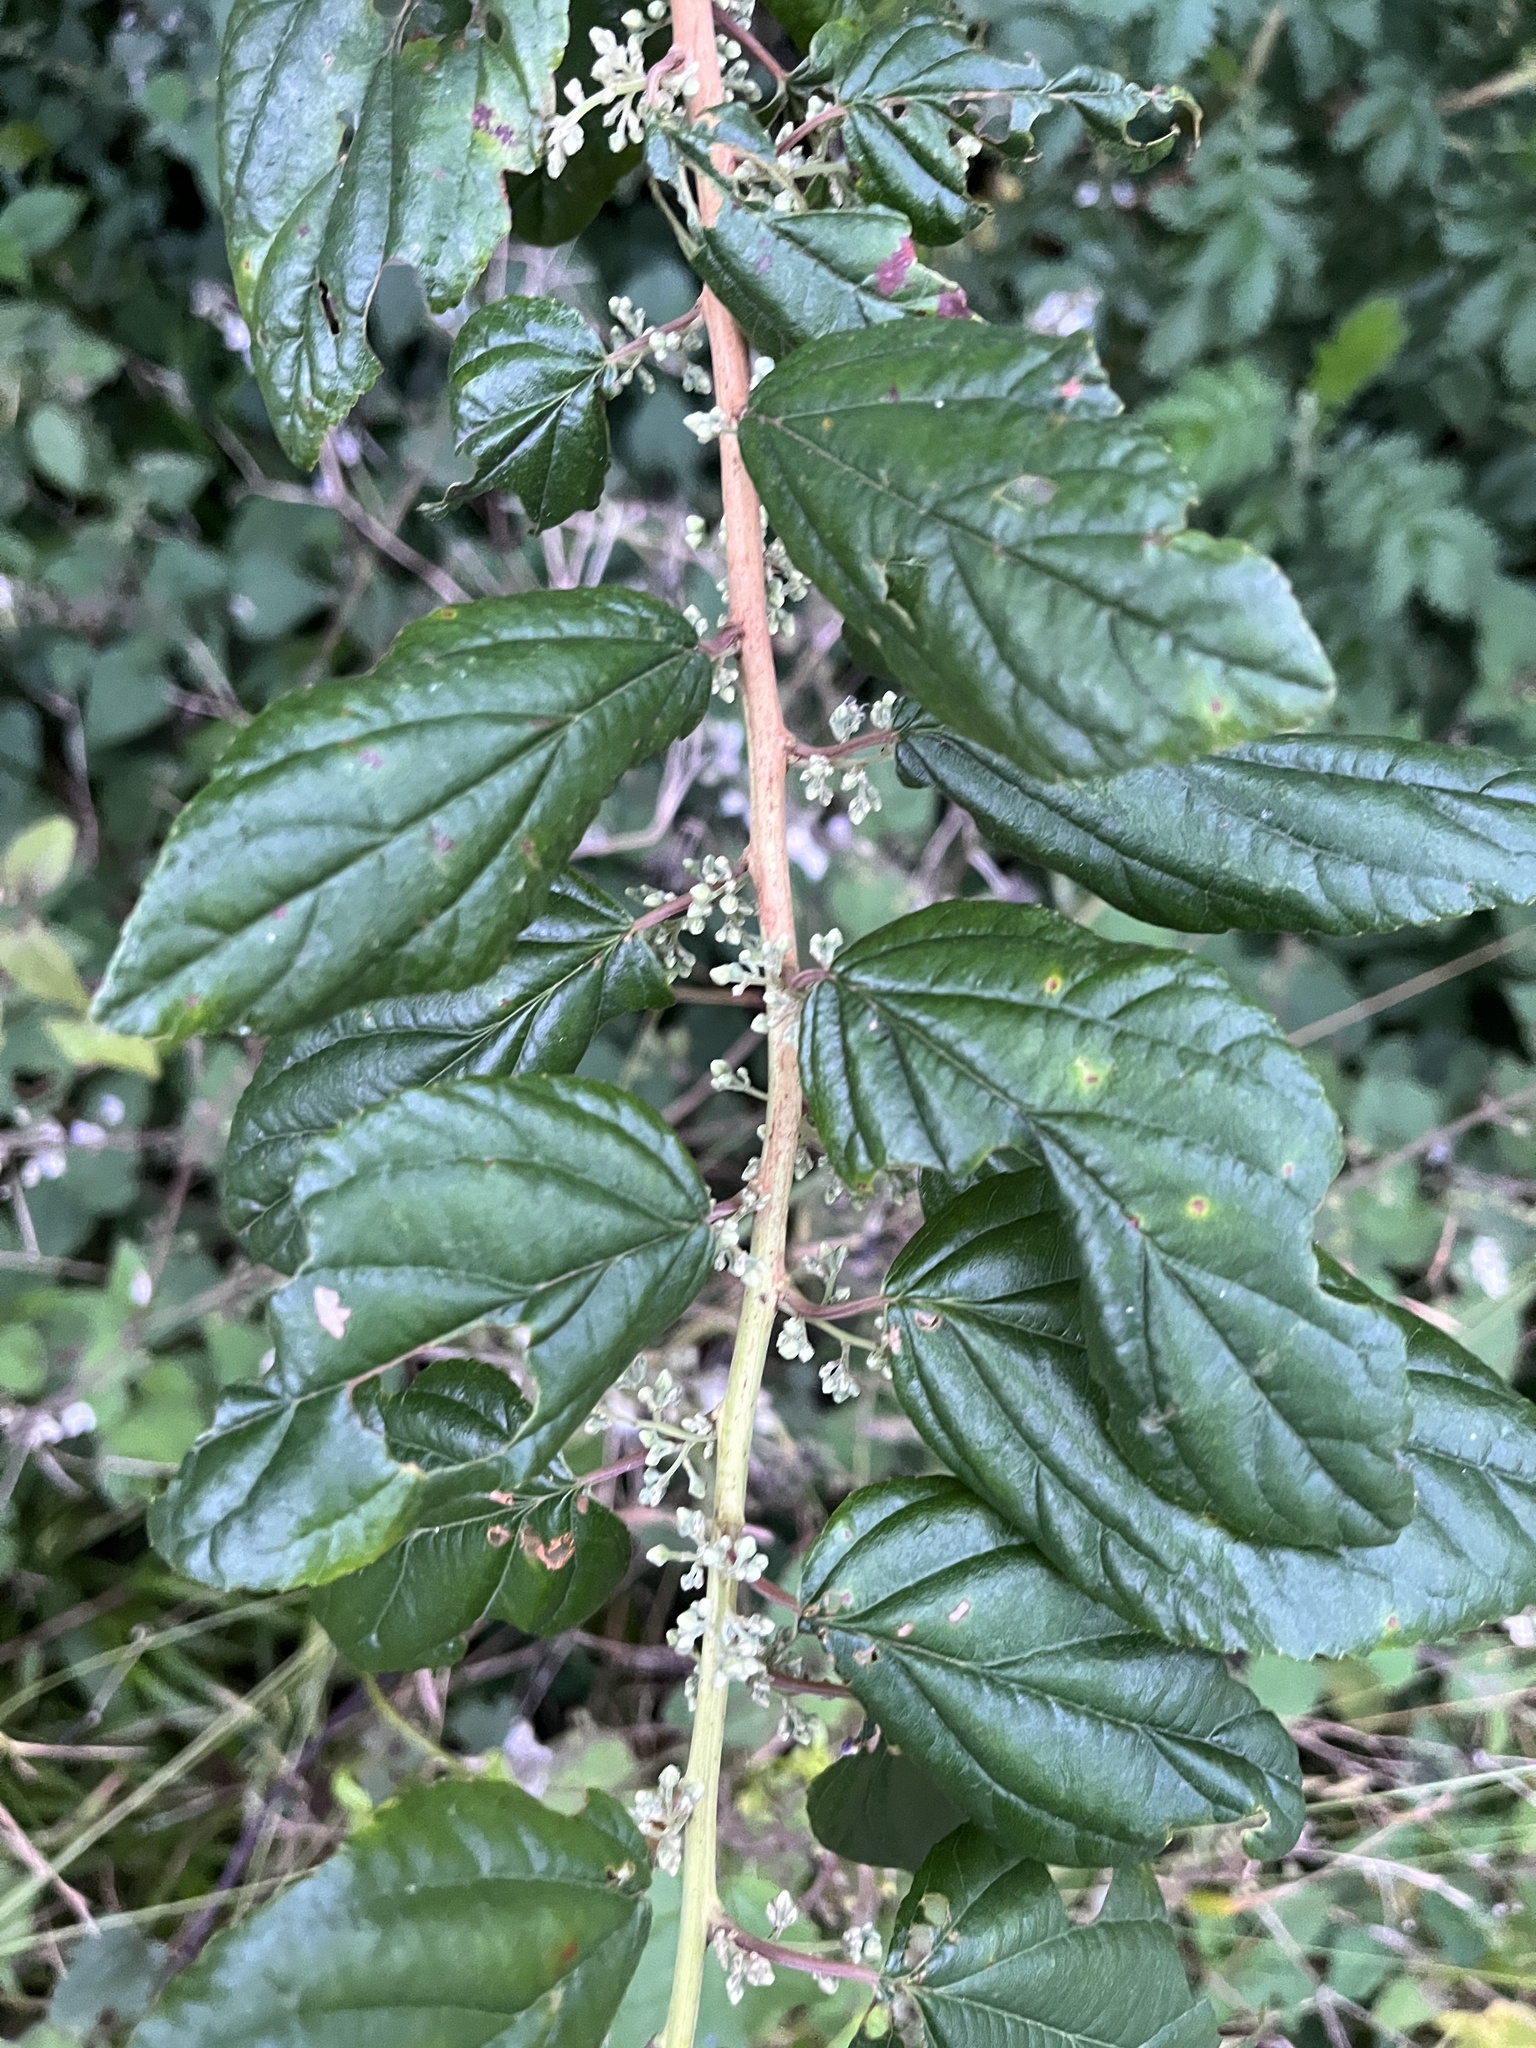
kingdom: Plantae
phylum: Tracheophyta
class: Magnoliopsida
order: Saxifragales
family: Iteaceae
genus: Itea
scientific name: Itea rhamnoides
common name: False dogwood
